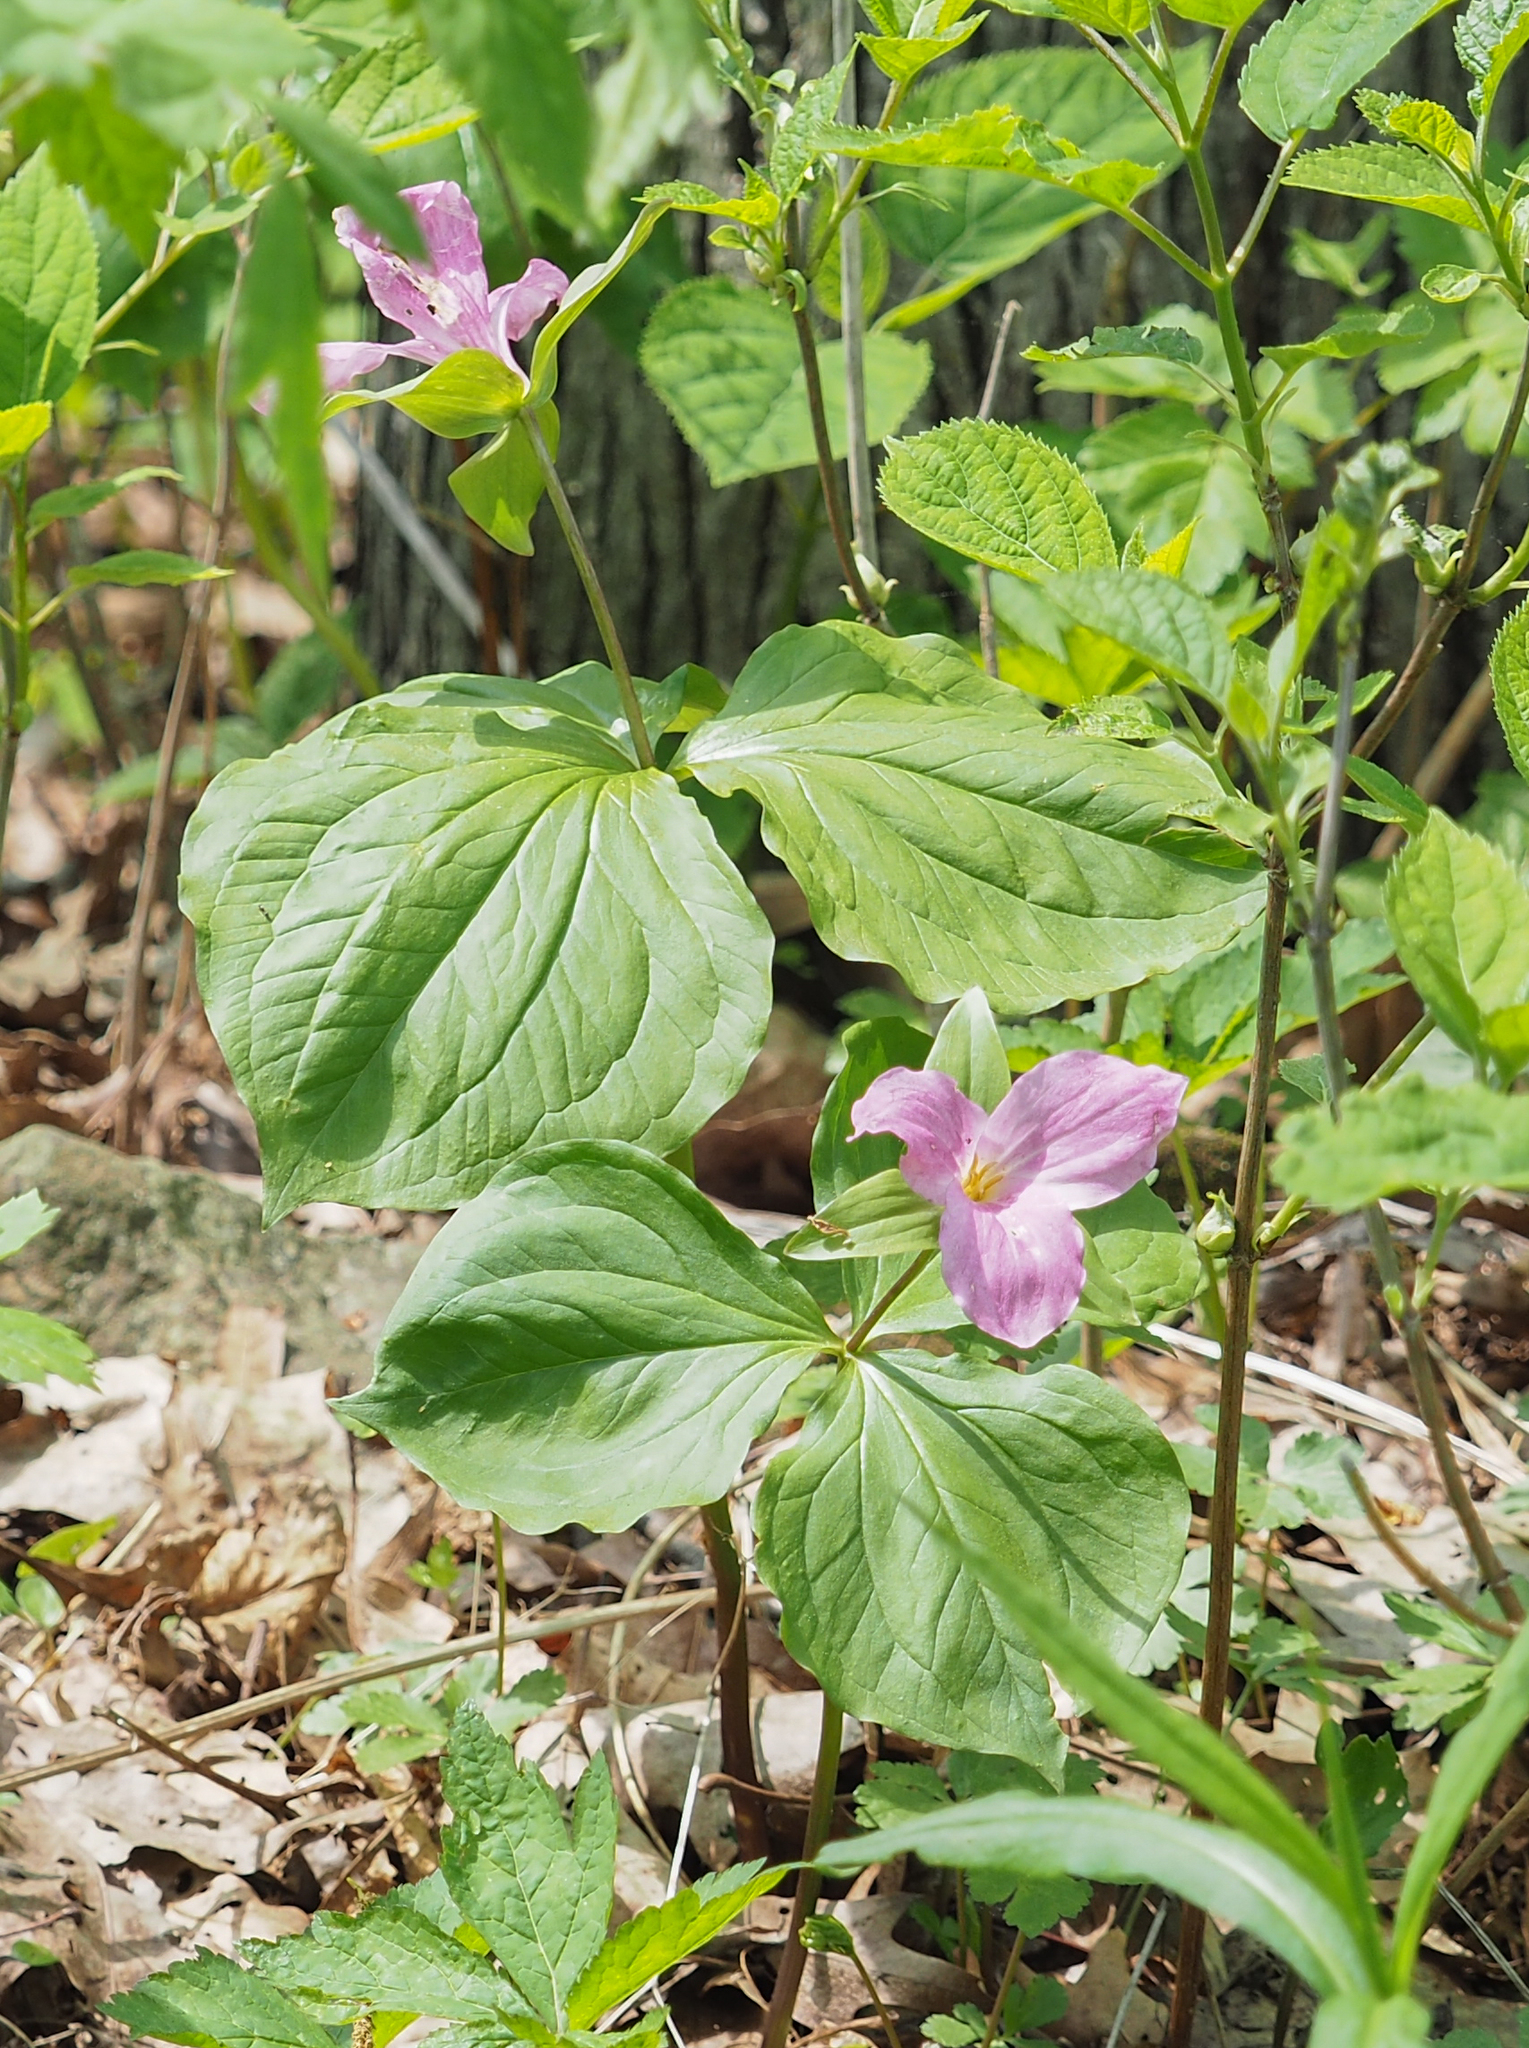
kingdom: Plantae
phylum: Tracheophyta
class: Liliopsida
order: Liliales
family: Melanthiaceae
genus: Trillium
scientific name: Trillium grandiflorum
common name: Great white trillium
